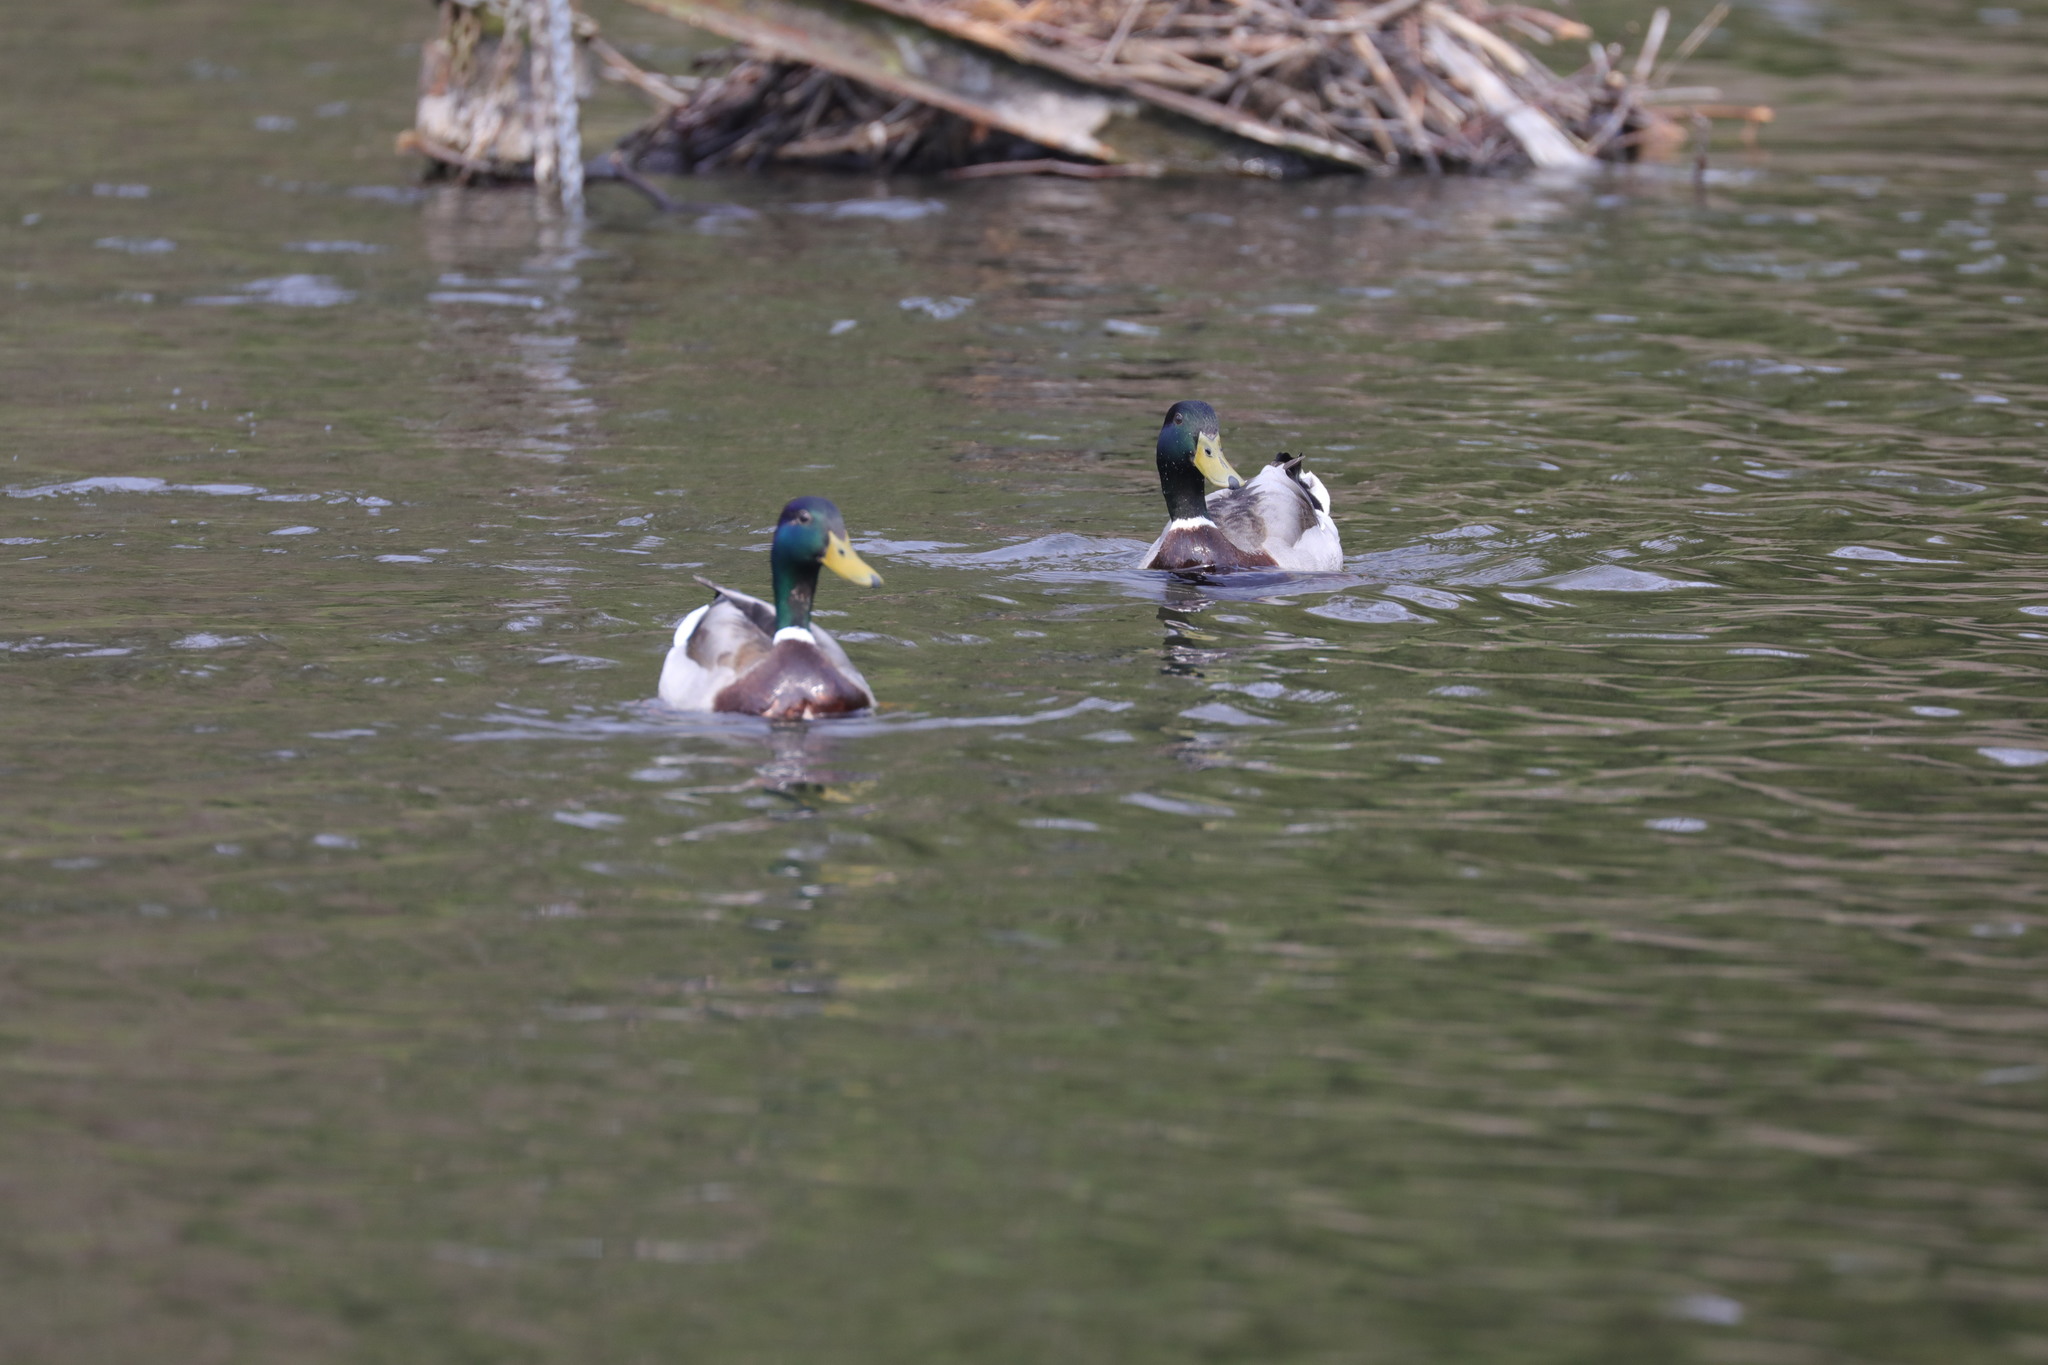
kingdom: Animalia
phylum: Chordata
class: Aves
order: Anseriformes
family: Anatidae
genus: Anas
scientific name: Anas platyrhynchos
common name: Mallard
